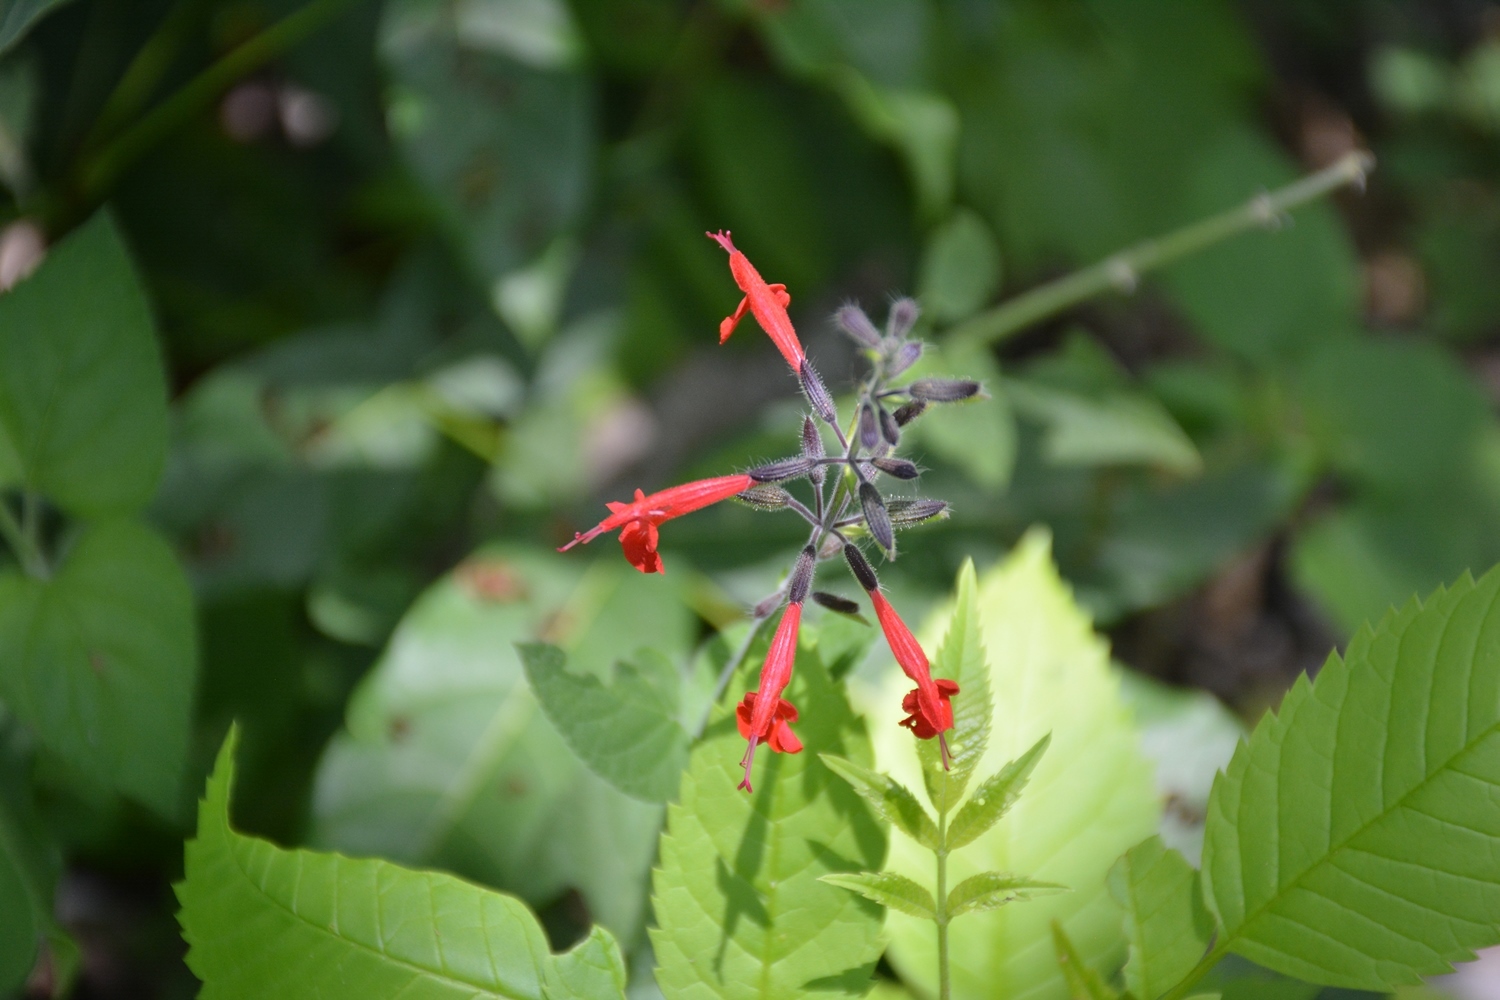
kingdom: Plantae
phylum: Tracheophyta
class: Magnoliopsida
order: Lamiales
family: Lamiaceae
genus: Salvia
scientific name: Salvia coccinea
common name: Blood sage
